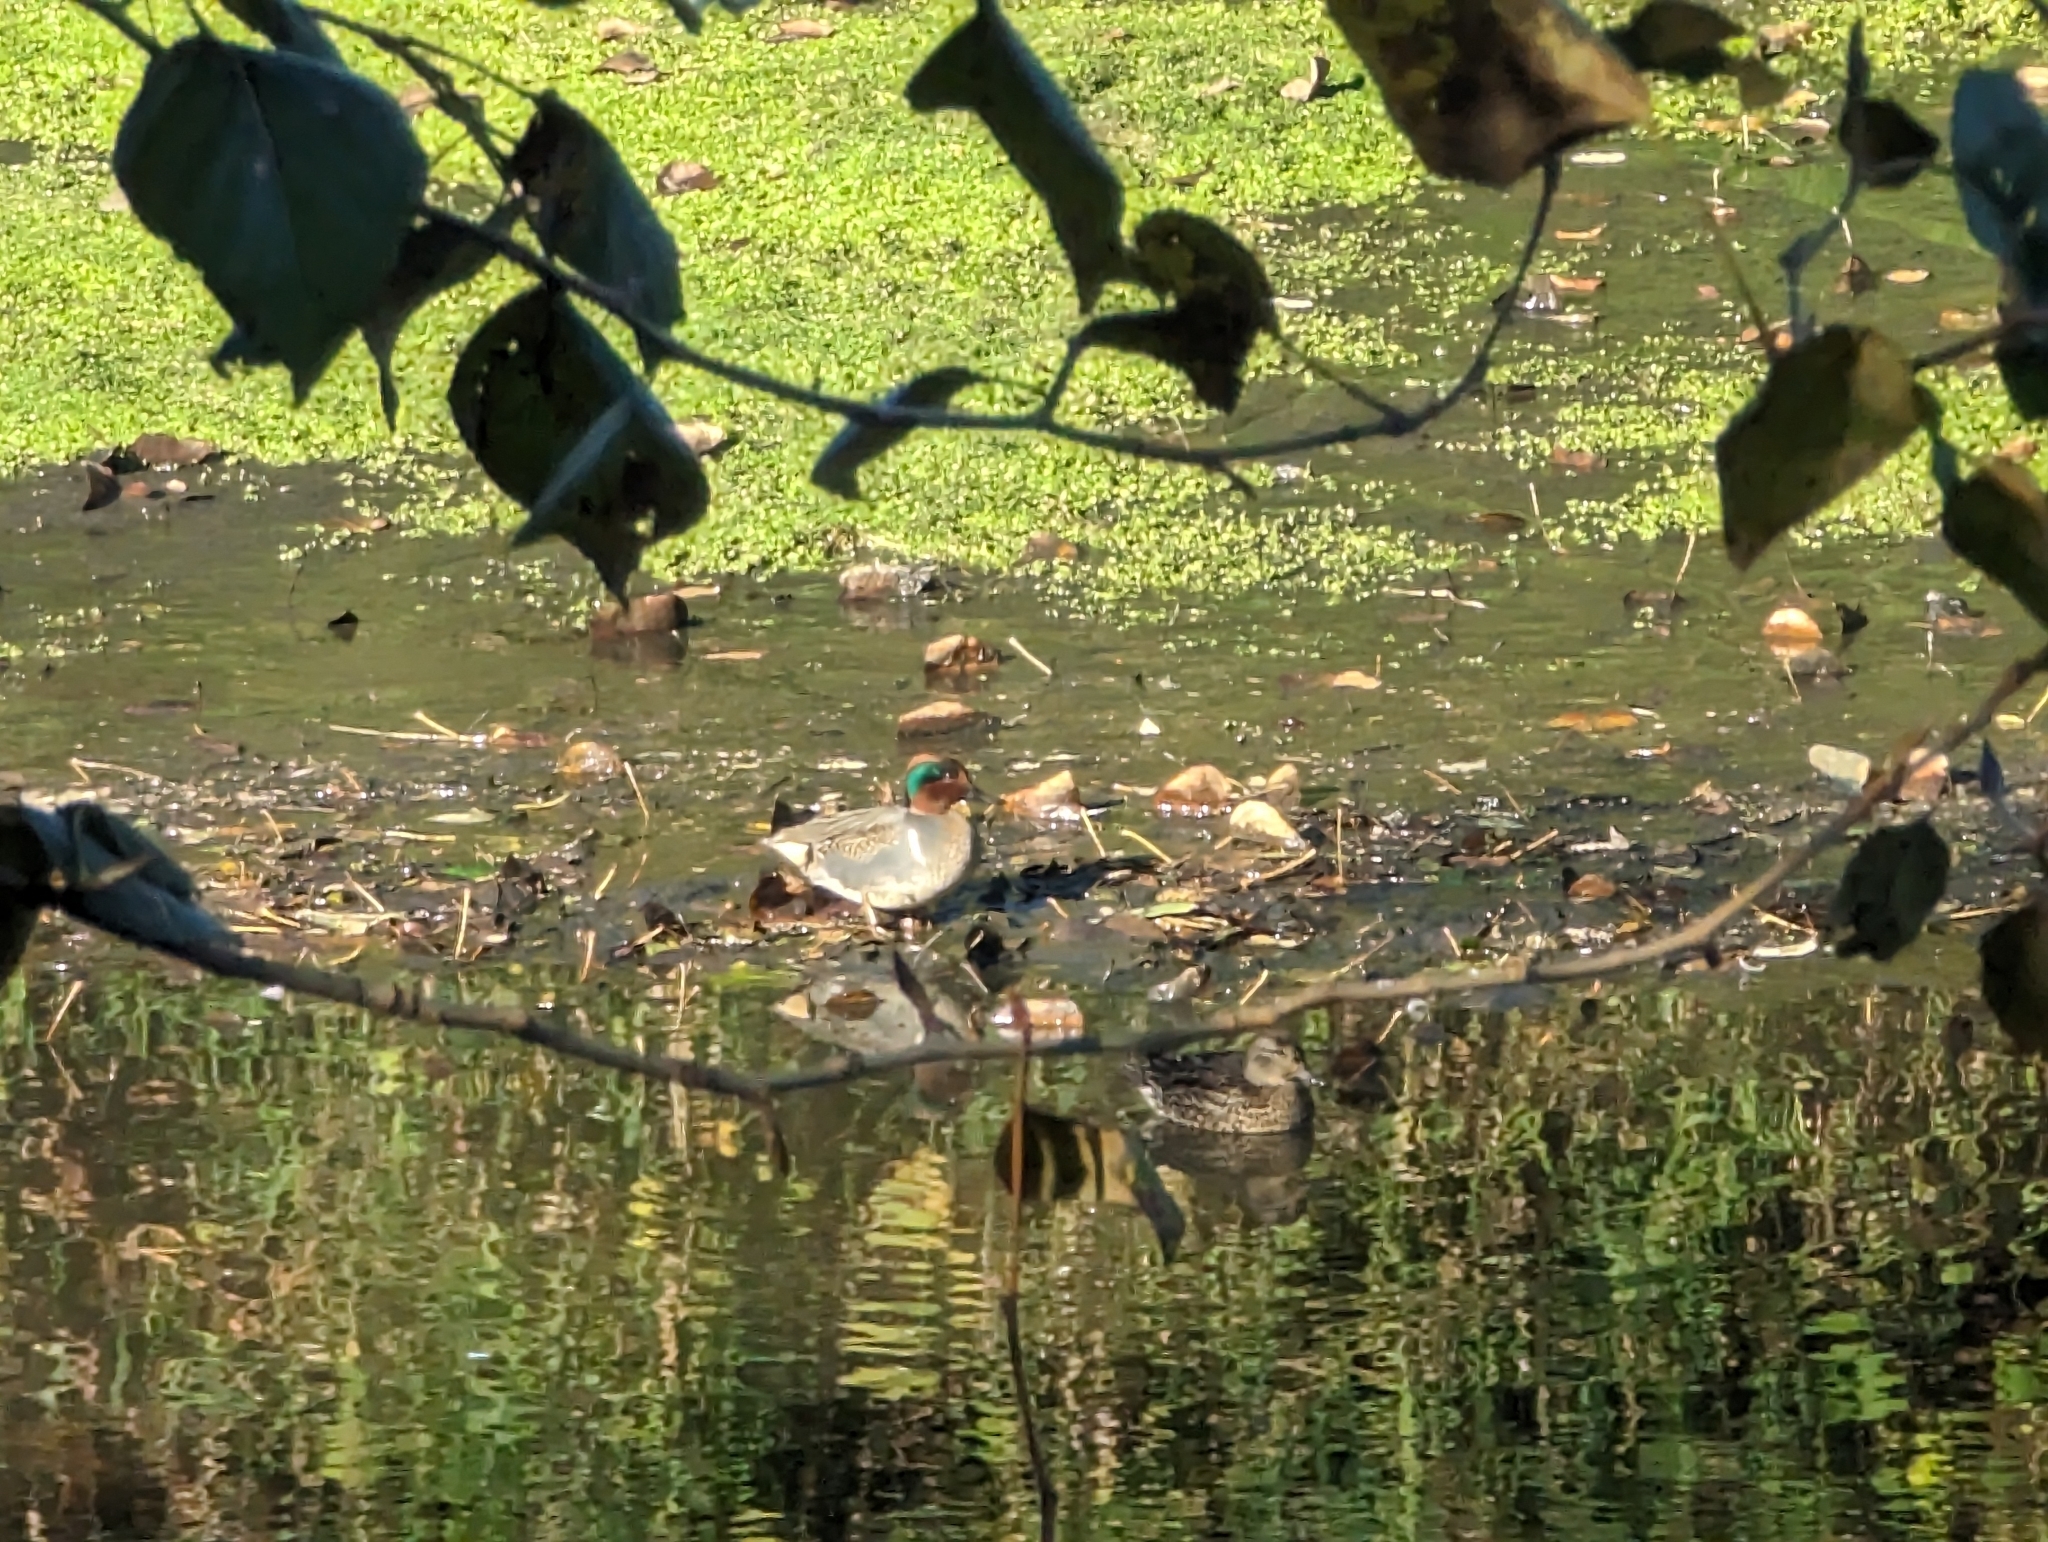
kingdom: Animalia
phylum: Chordata
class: Aves
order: Anseriformes
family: Anatidae
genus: Anas
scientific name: Anas crecca
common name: Eurasian teal
